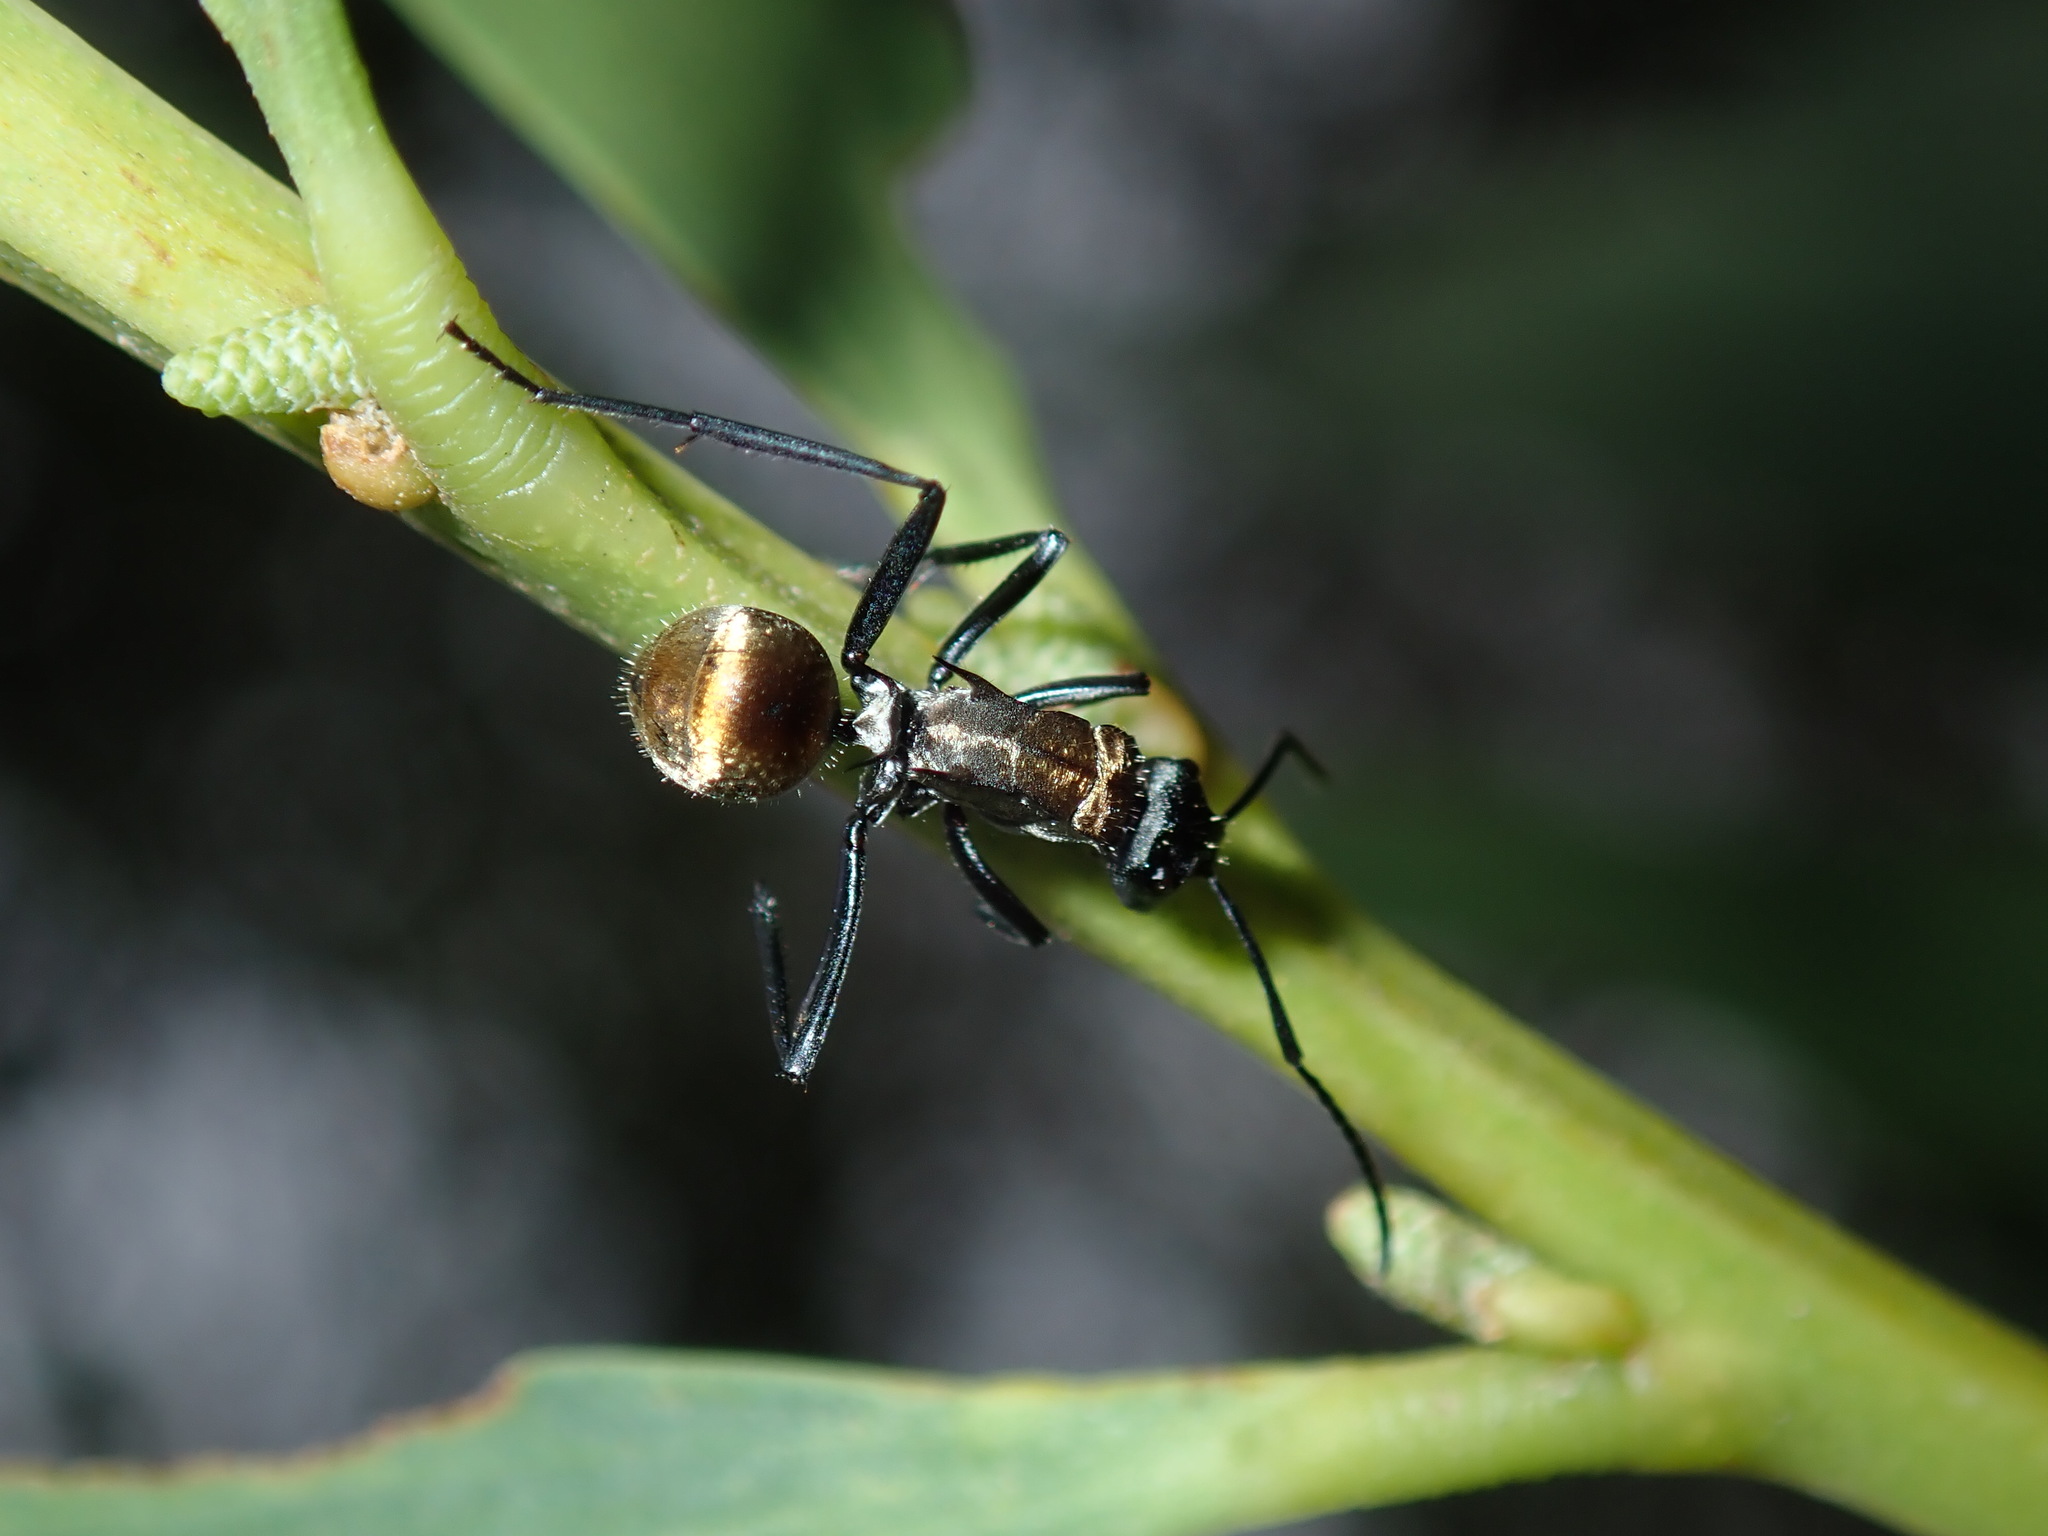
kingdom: Animalia
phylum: Arthropoda
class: Insecta
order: Hymenoptera
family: Formicidae
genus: Polyrhachis
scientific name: Polyrhachis ammon
